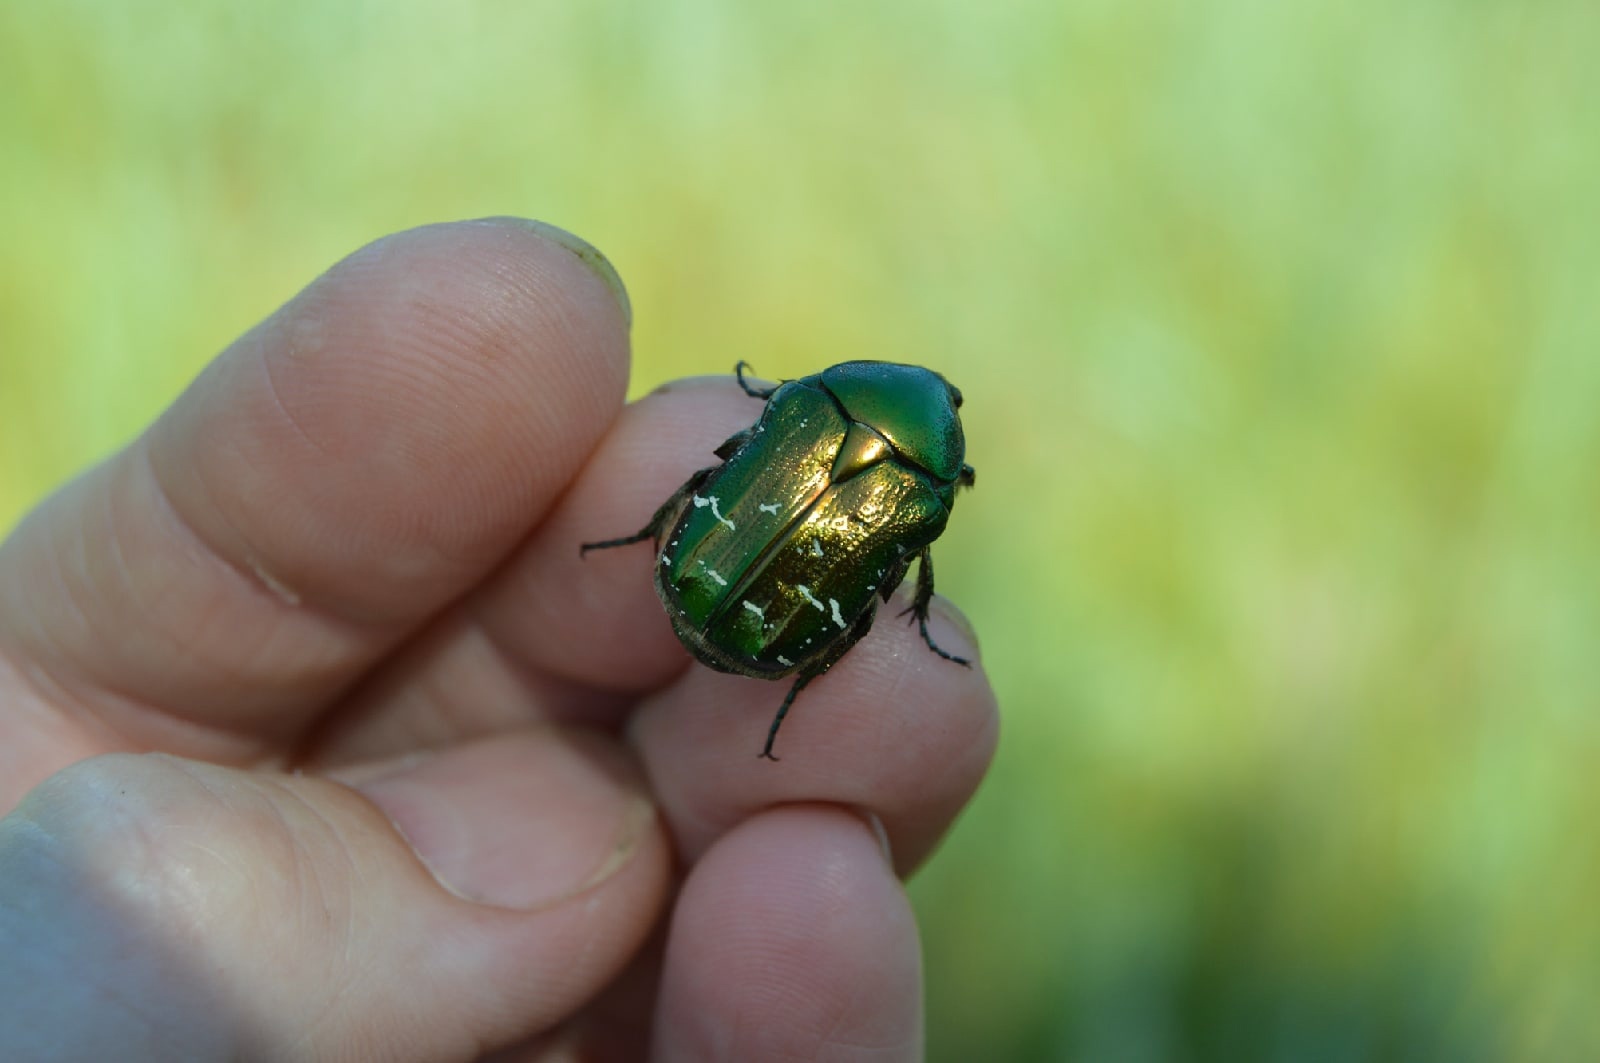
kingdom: Animalia
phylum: Arthropoda
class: Insecta
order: Coleoptera
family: Scarabaeidae
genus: Cetonia
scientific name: Cetonia aurata
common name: Rose chafer
